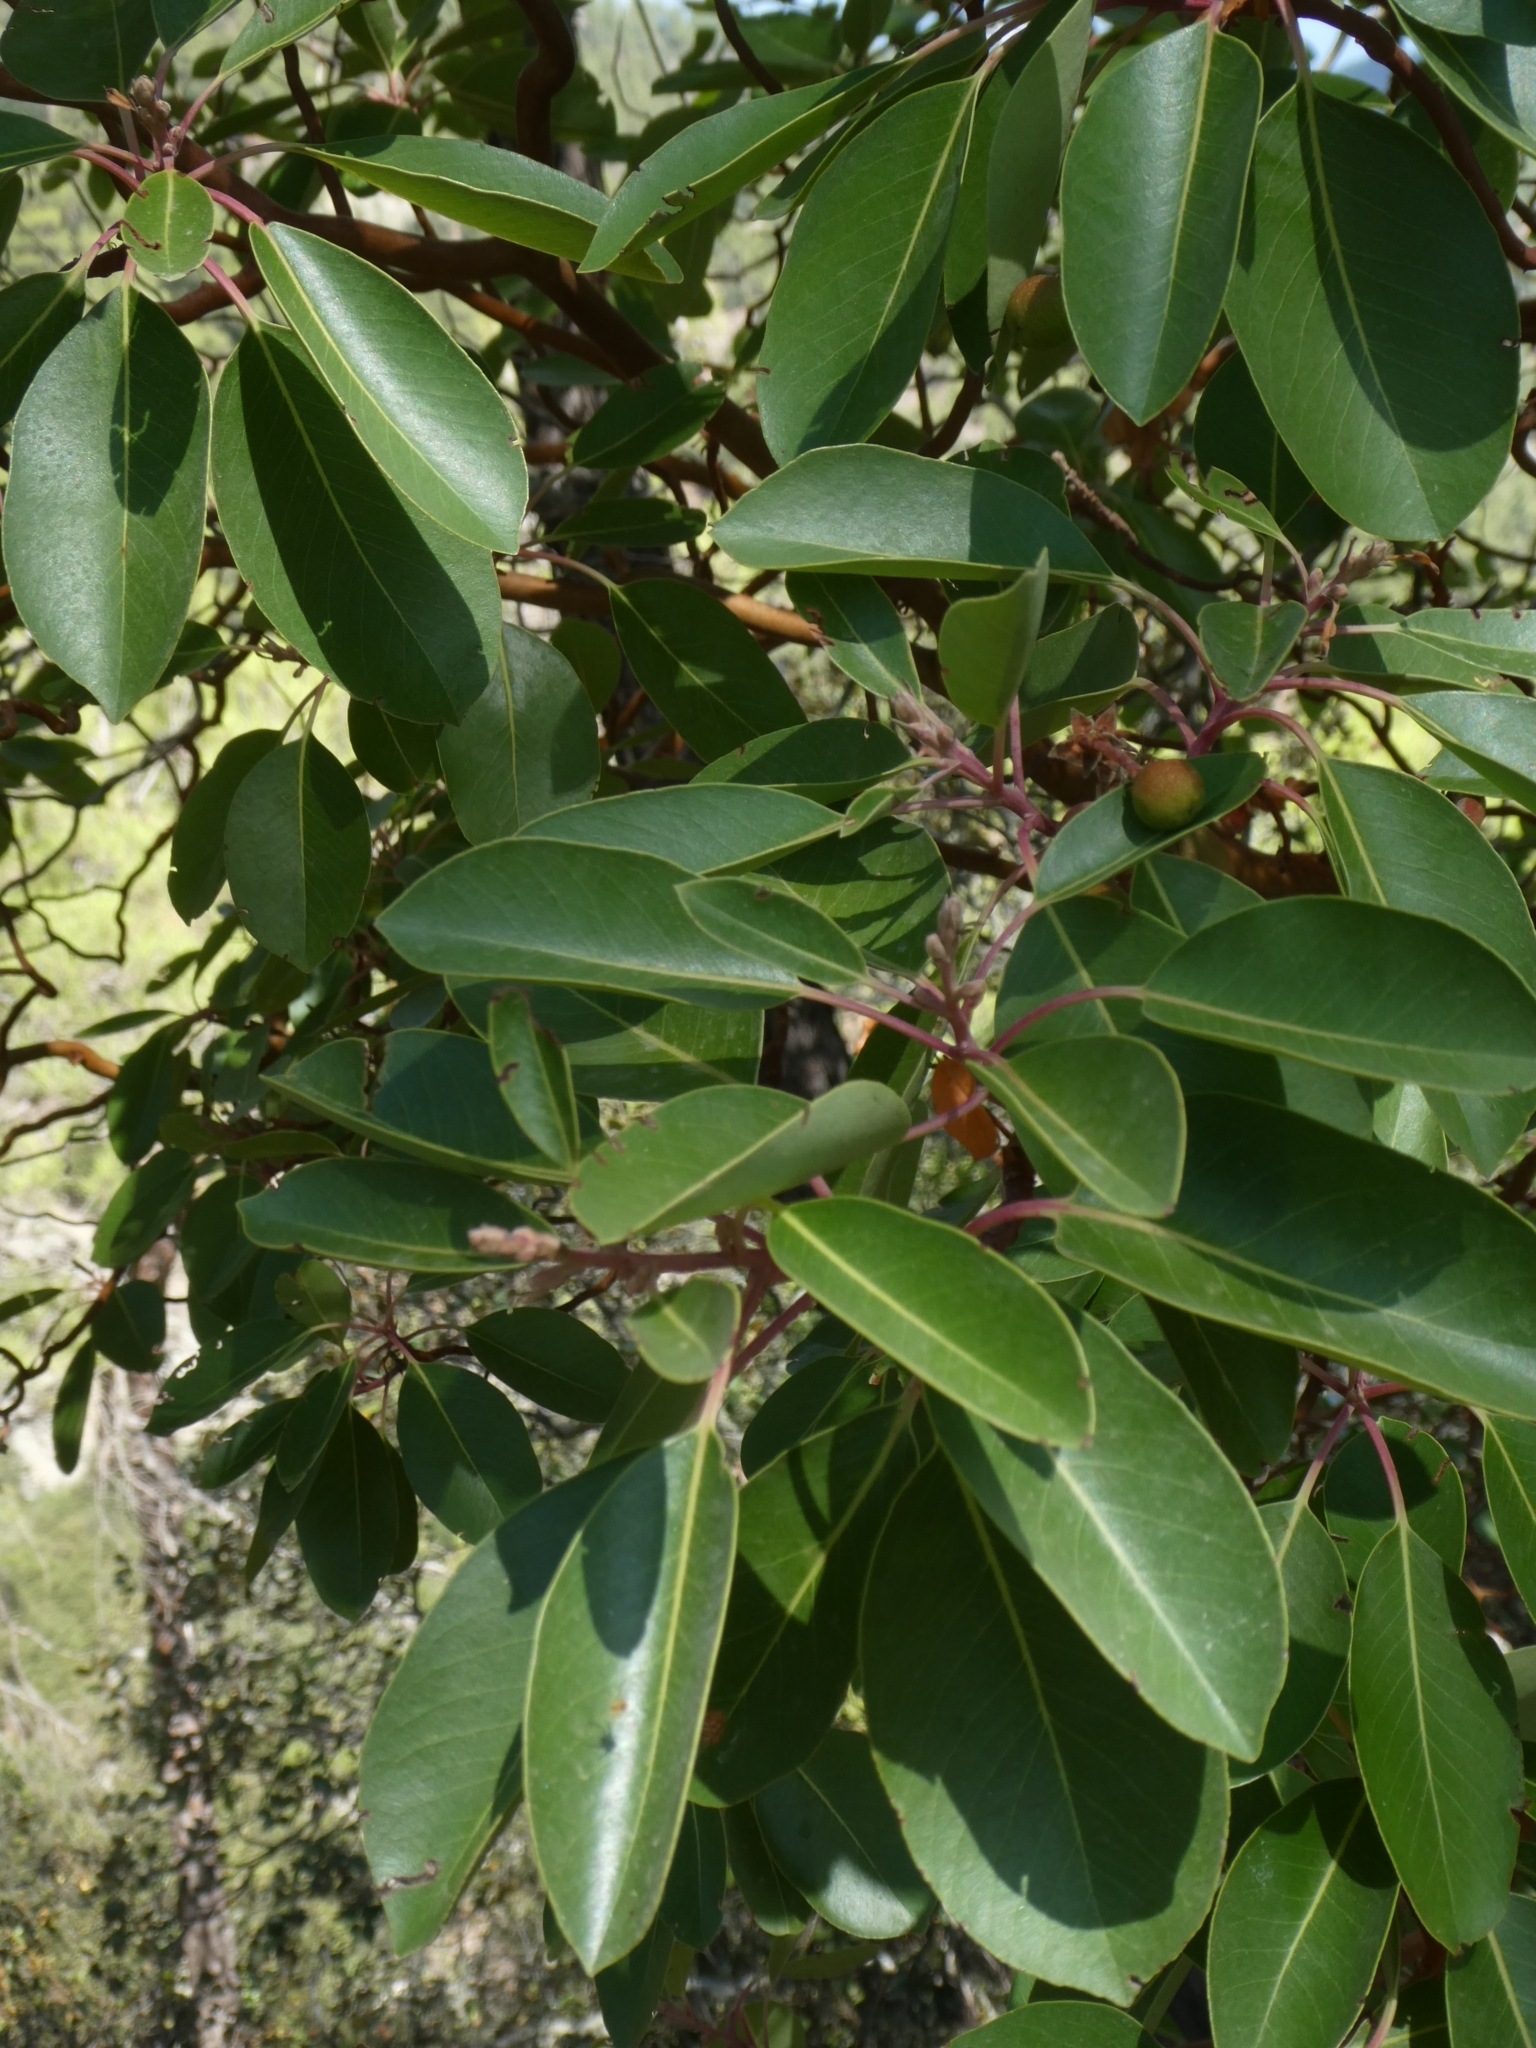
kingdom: Plantae
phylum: Tracheophyta
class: Magnoliopsida
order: Ericales
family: Ericaceae
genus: Arbutus
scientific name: Arbutus andrachne
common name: Greek strawberry tree
